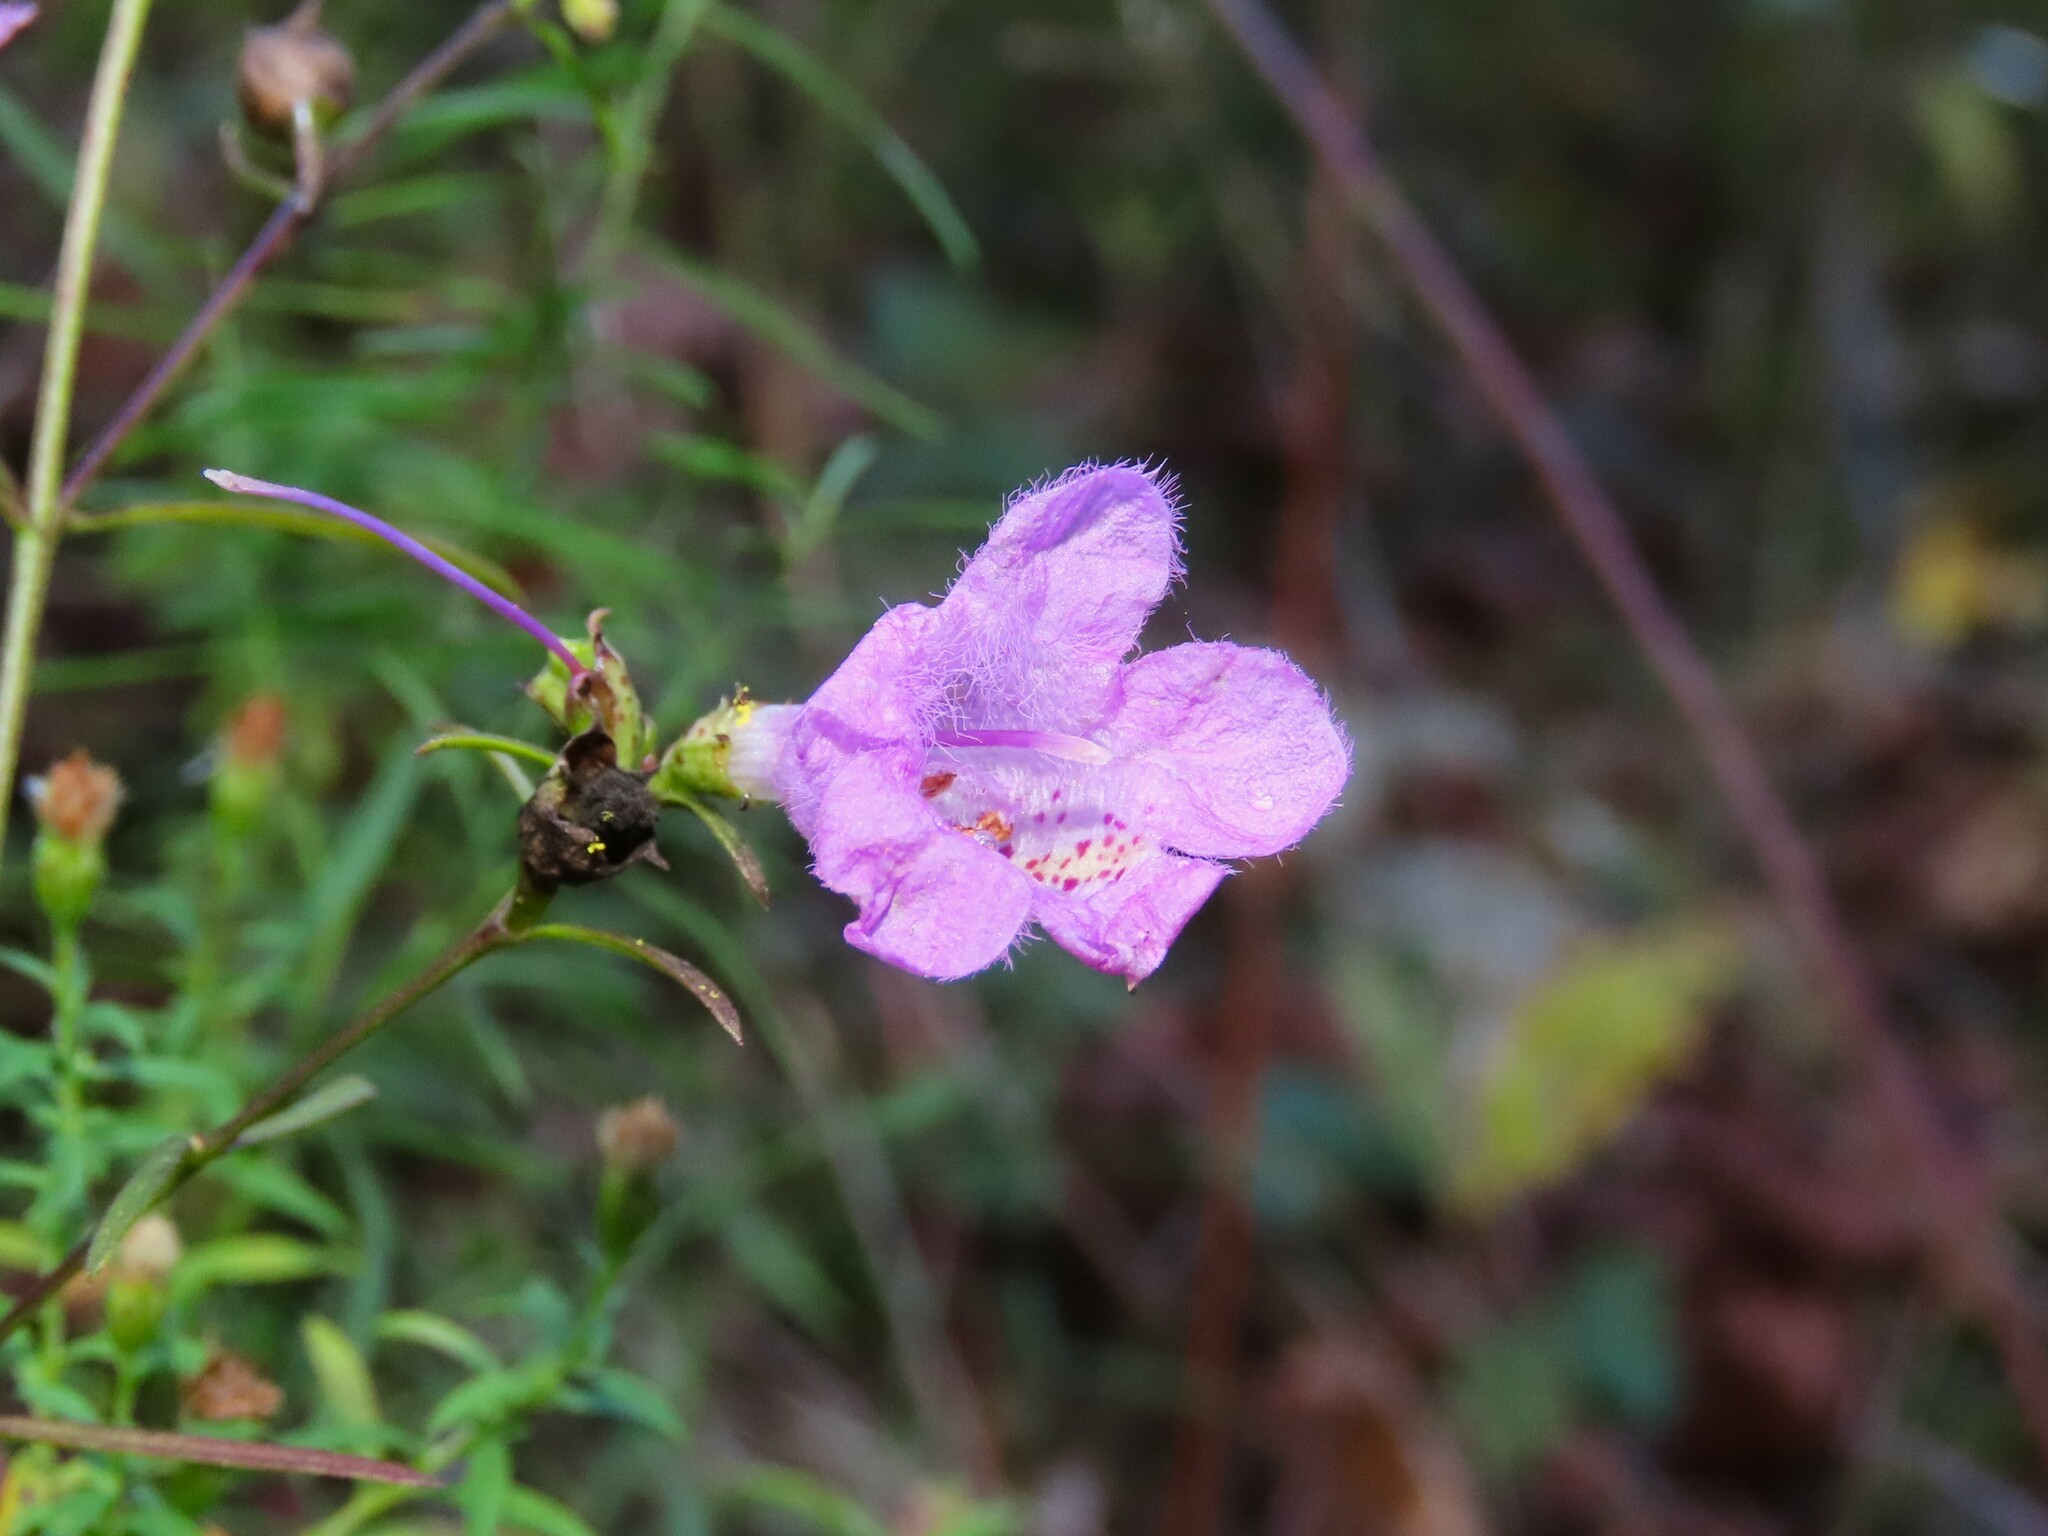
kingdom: Plantae
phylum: Tracheophyta
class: Magnoliopsida
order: Lamiales
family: Orobanchaceae
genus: Agalinis
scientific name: Agalinis purpurea
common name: Purple false foxglove
